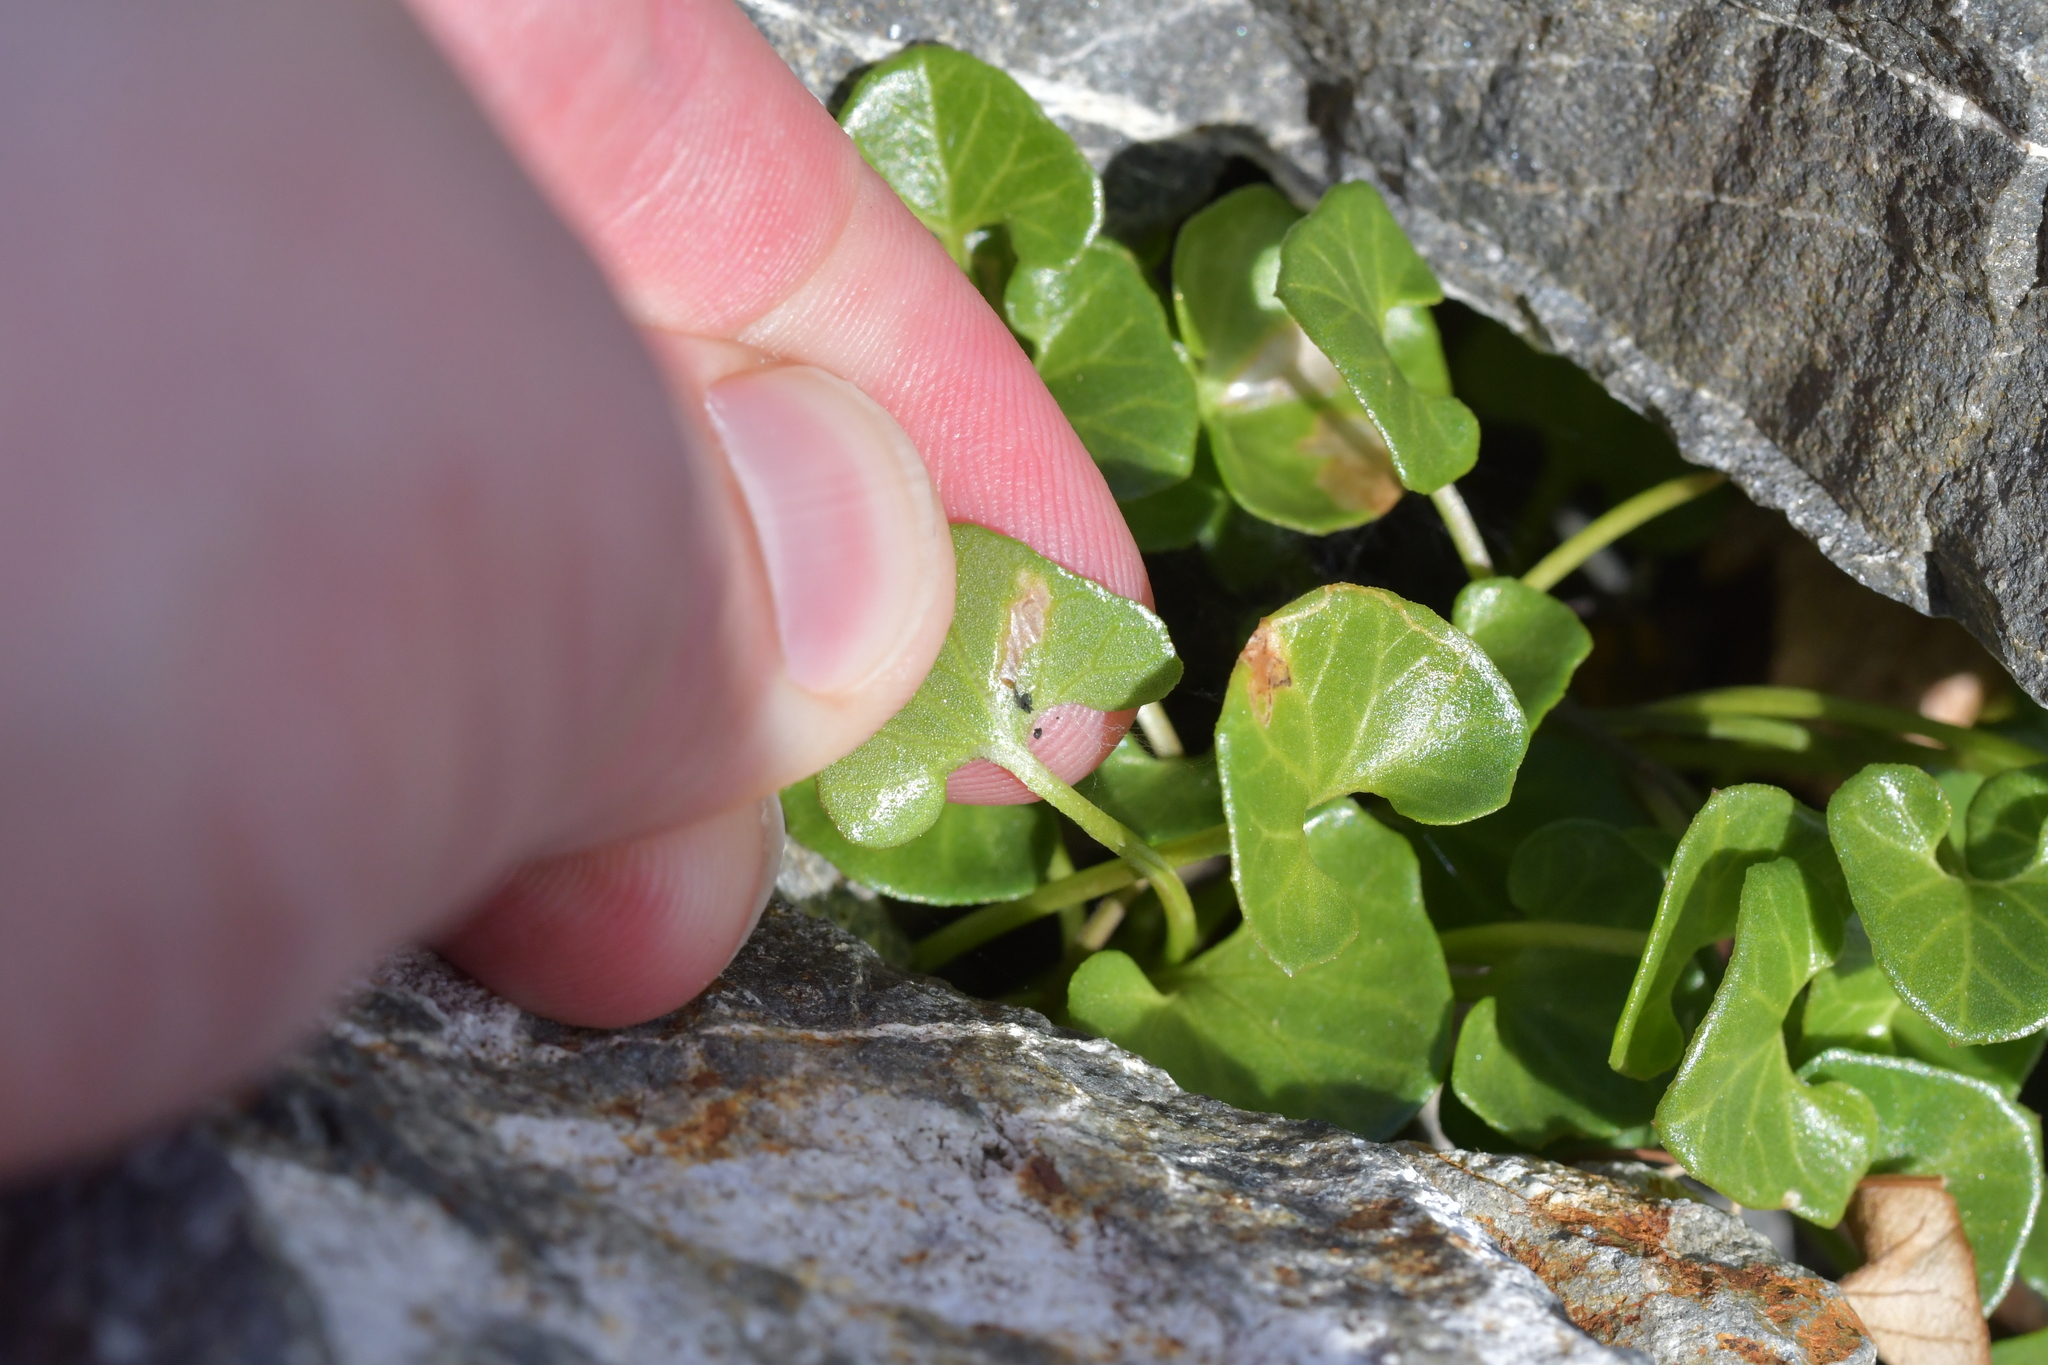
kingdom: Plantae
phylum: Tracheophyta
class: Magnoliopsida
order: Solanales
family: Convolvulaceae
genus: Calystegia
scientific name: Calystegia tuguriorum
